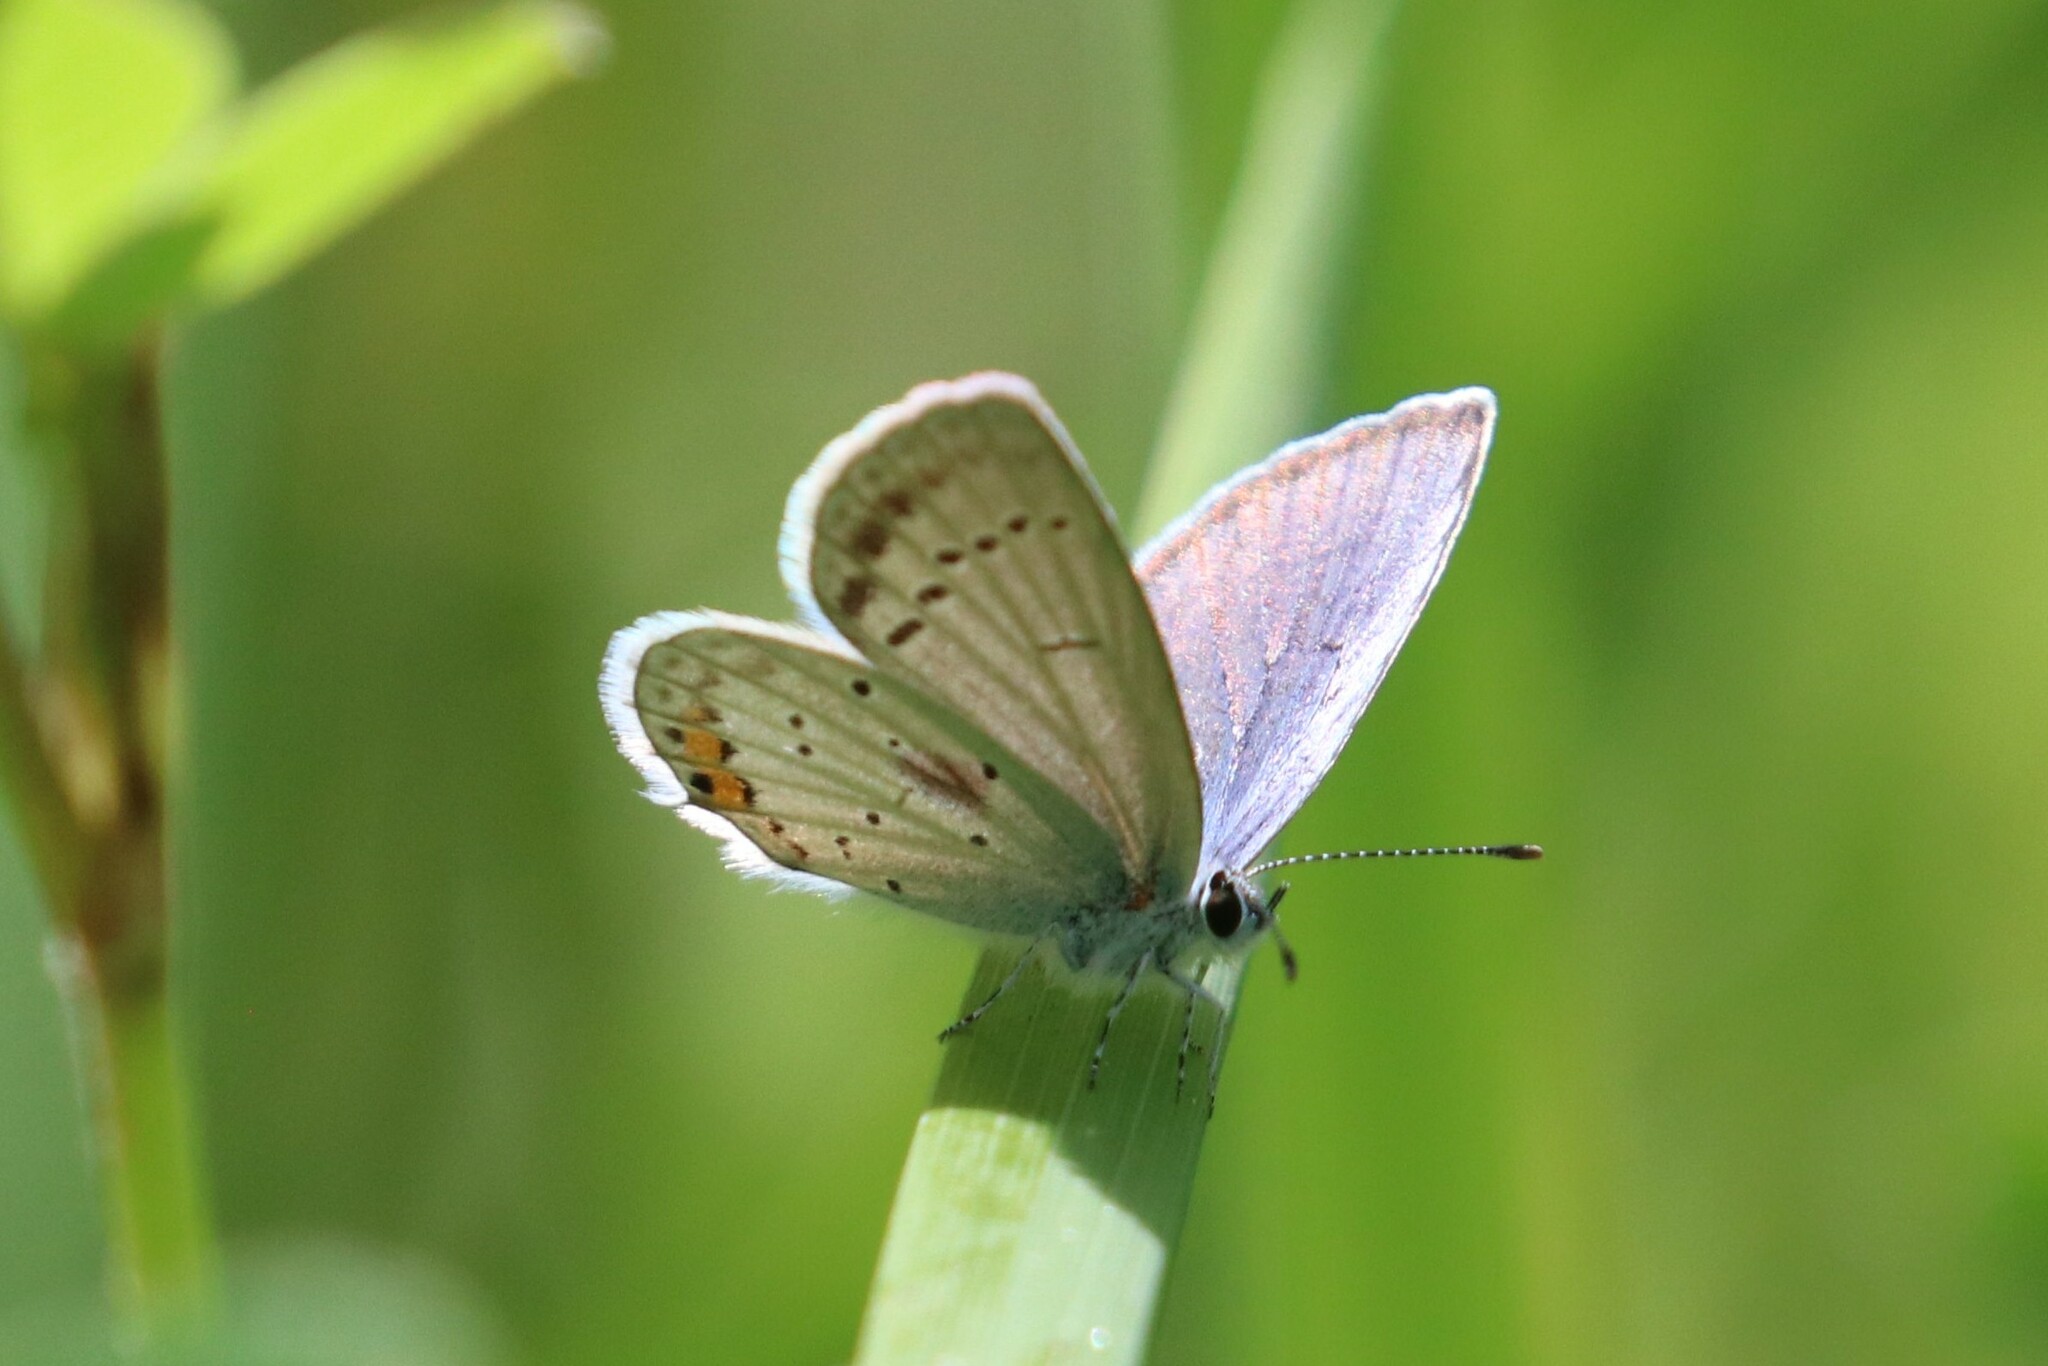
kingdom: Animalia
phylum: Arthropoda
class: Insecta
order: Lepidoptera
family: Lycaenidae
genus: Elkalyce
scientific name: Elkalyce argiades
